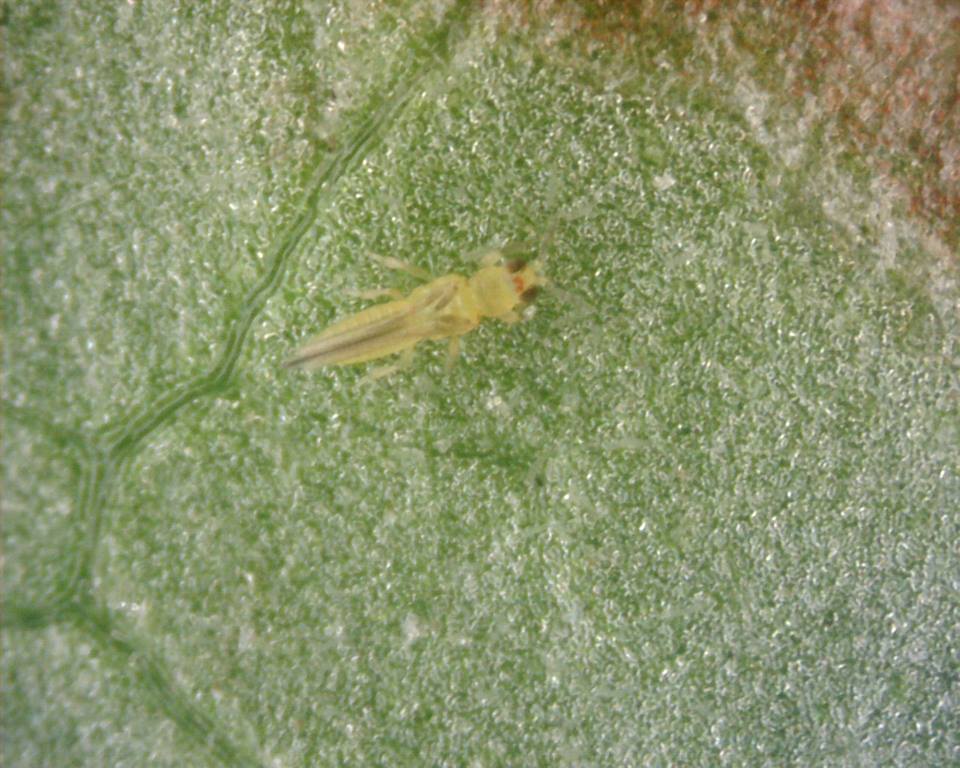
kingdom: Animalia
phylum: Arthropoda
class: Insecta
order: Thysanoptera
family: Thripidae
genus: Scirtothrips
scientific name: Scirtothrips dorsalis
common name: Thrips
